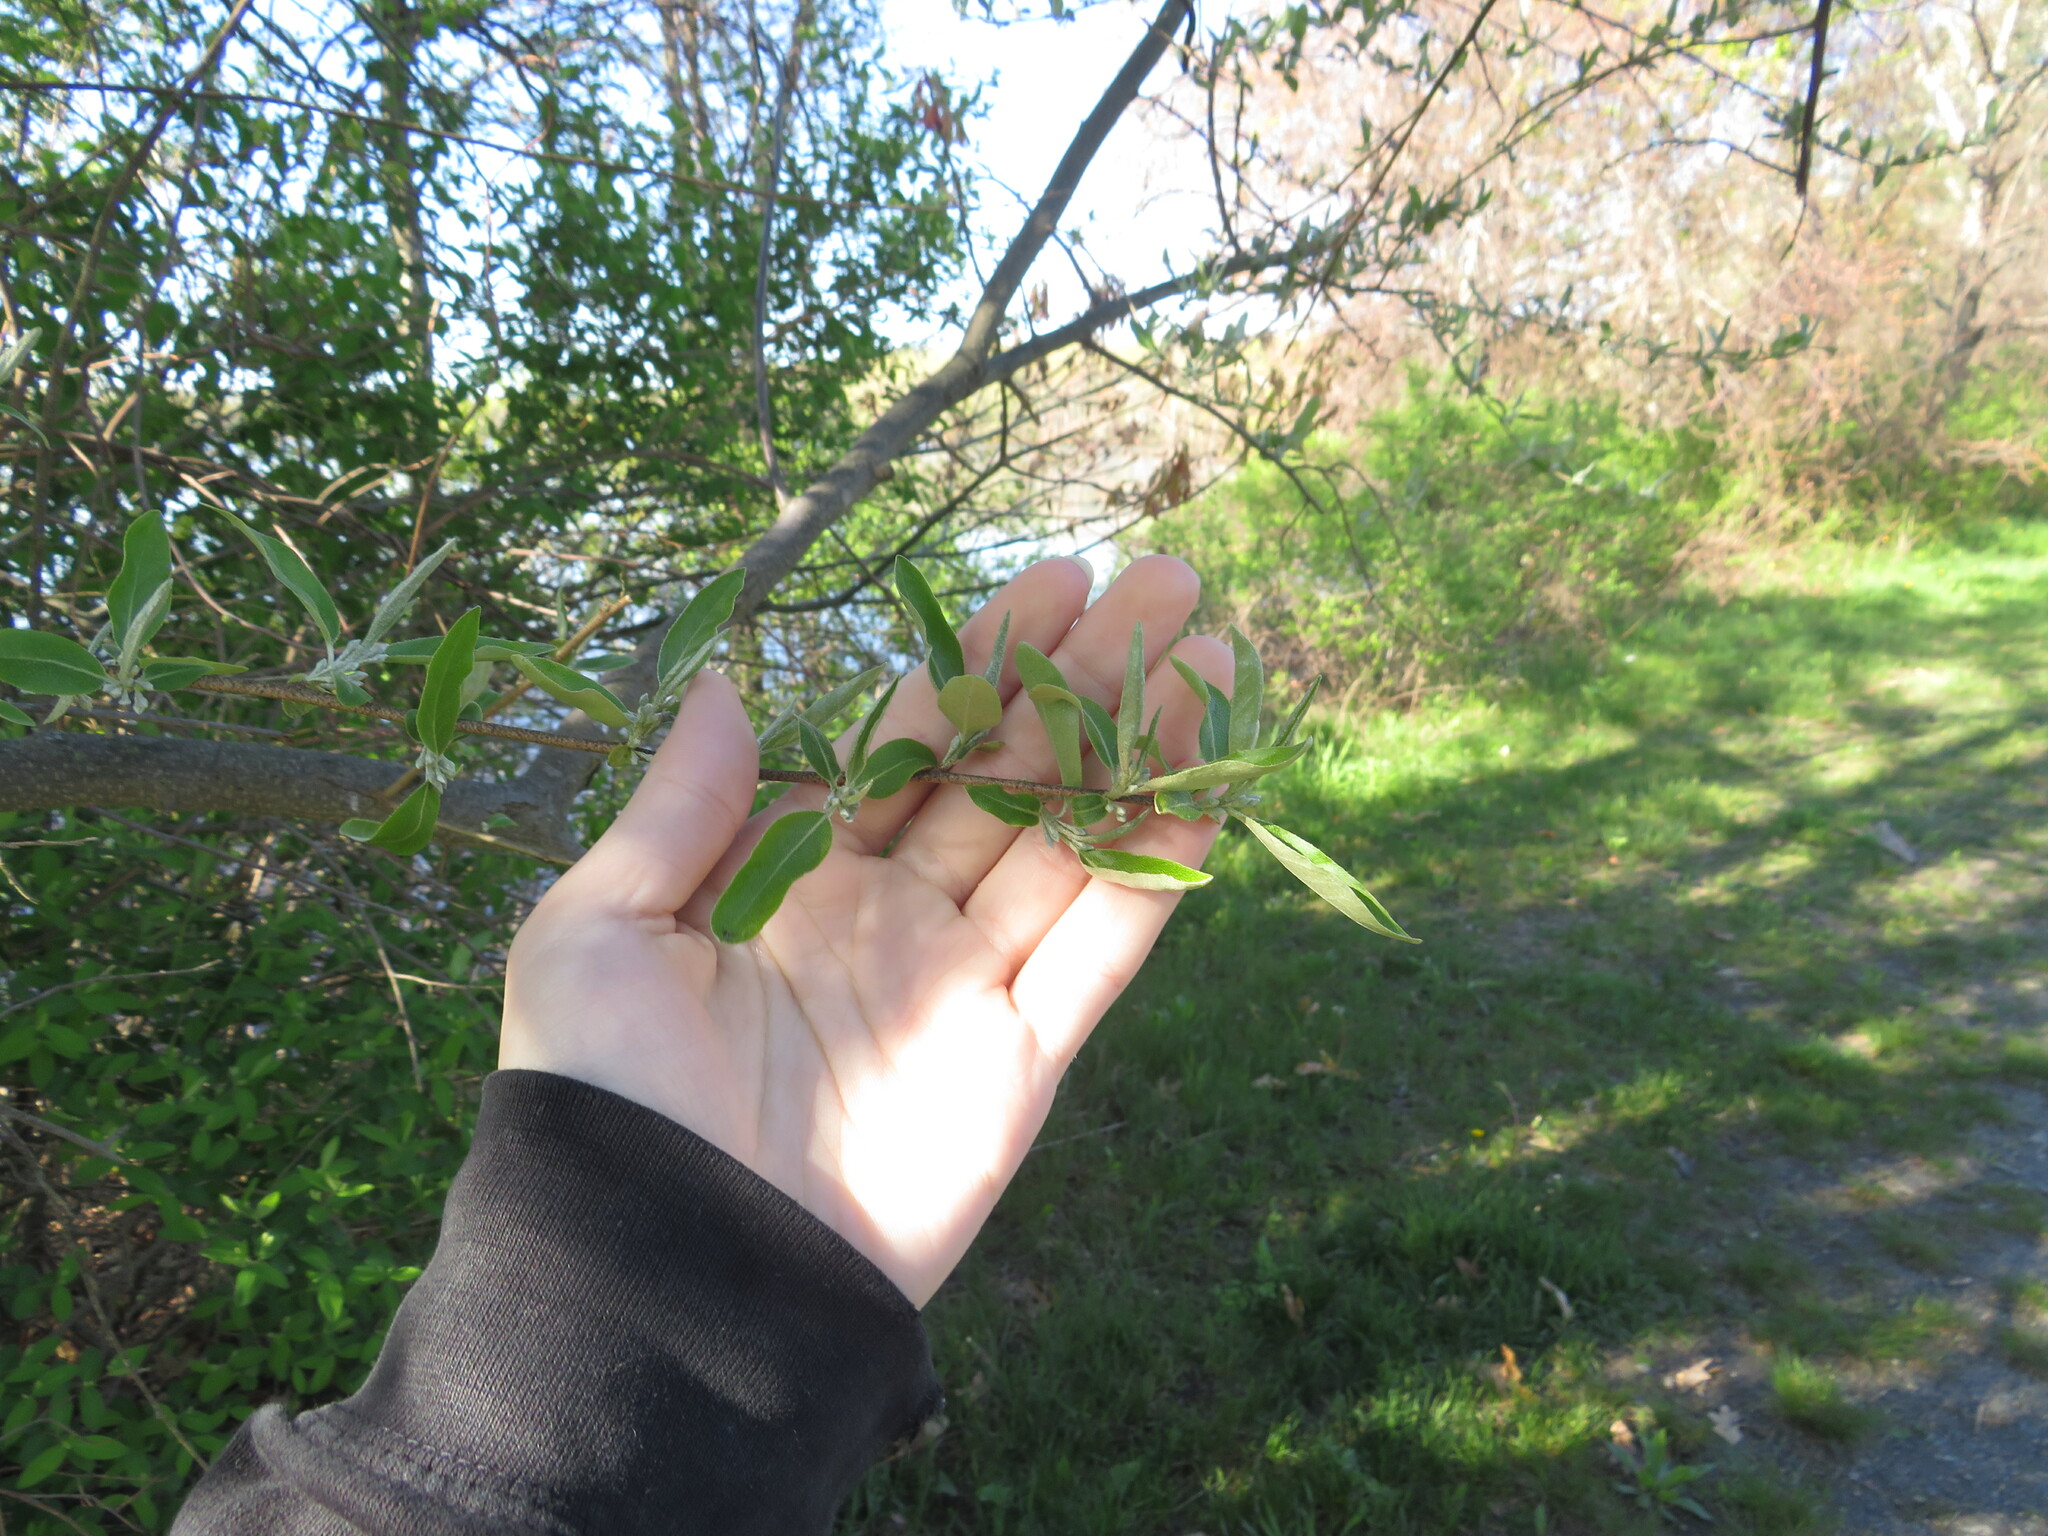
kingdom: Plantae
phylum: Tracheophyta
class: Magnoliopsida
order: Rosales
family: Elaeagnaceae
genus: Elaeagnus
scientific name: Elaeagnus umbellata
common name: Autumn olive
